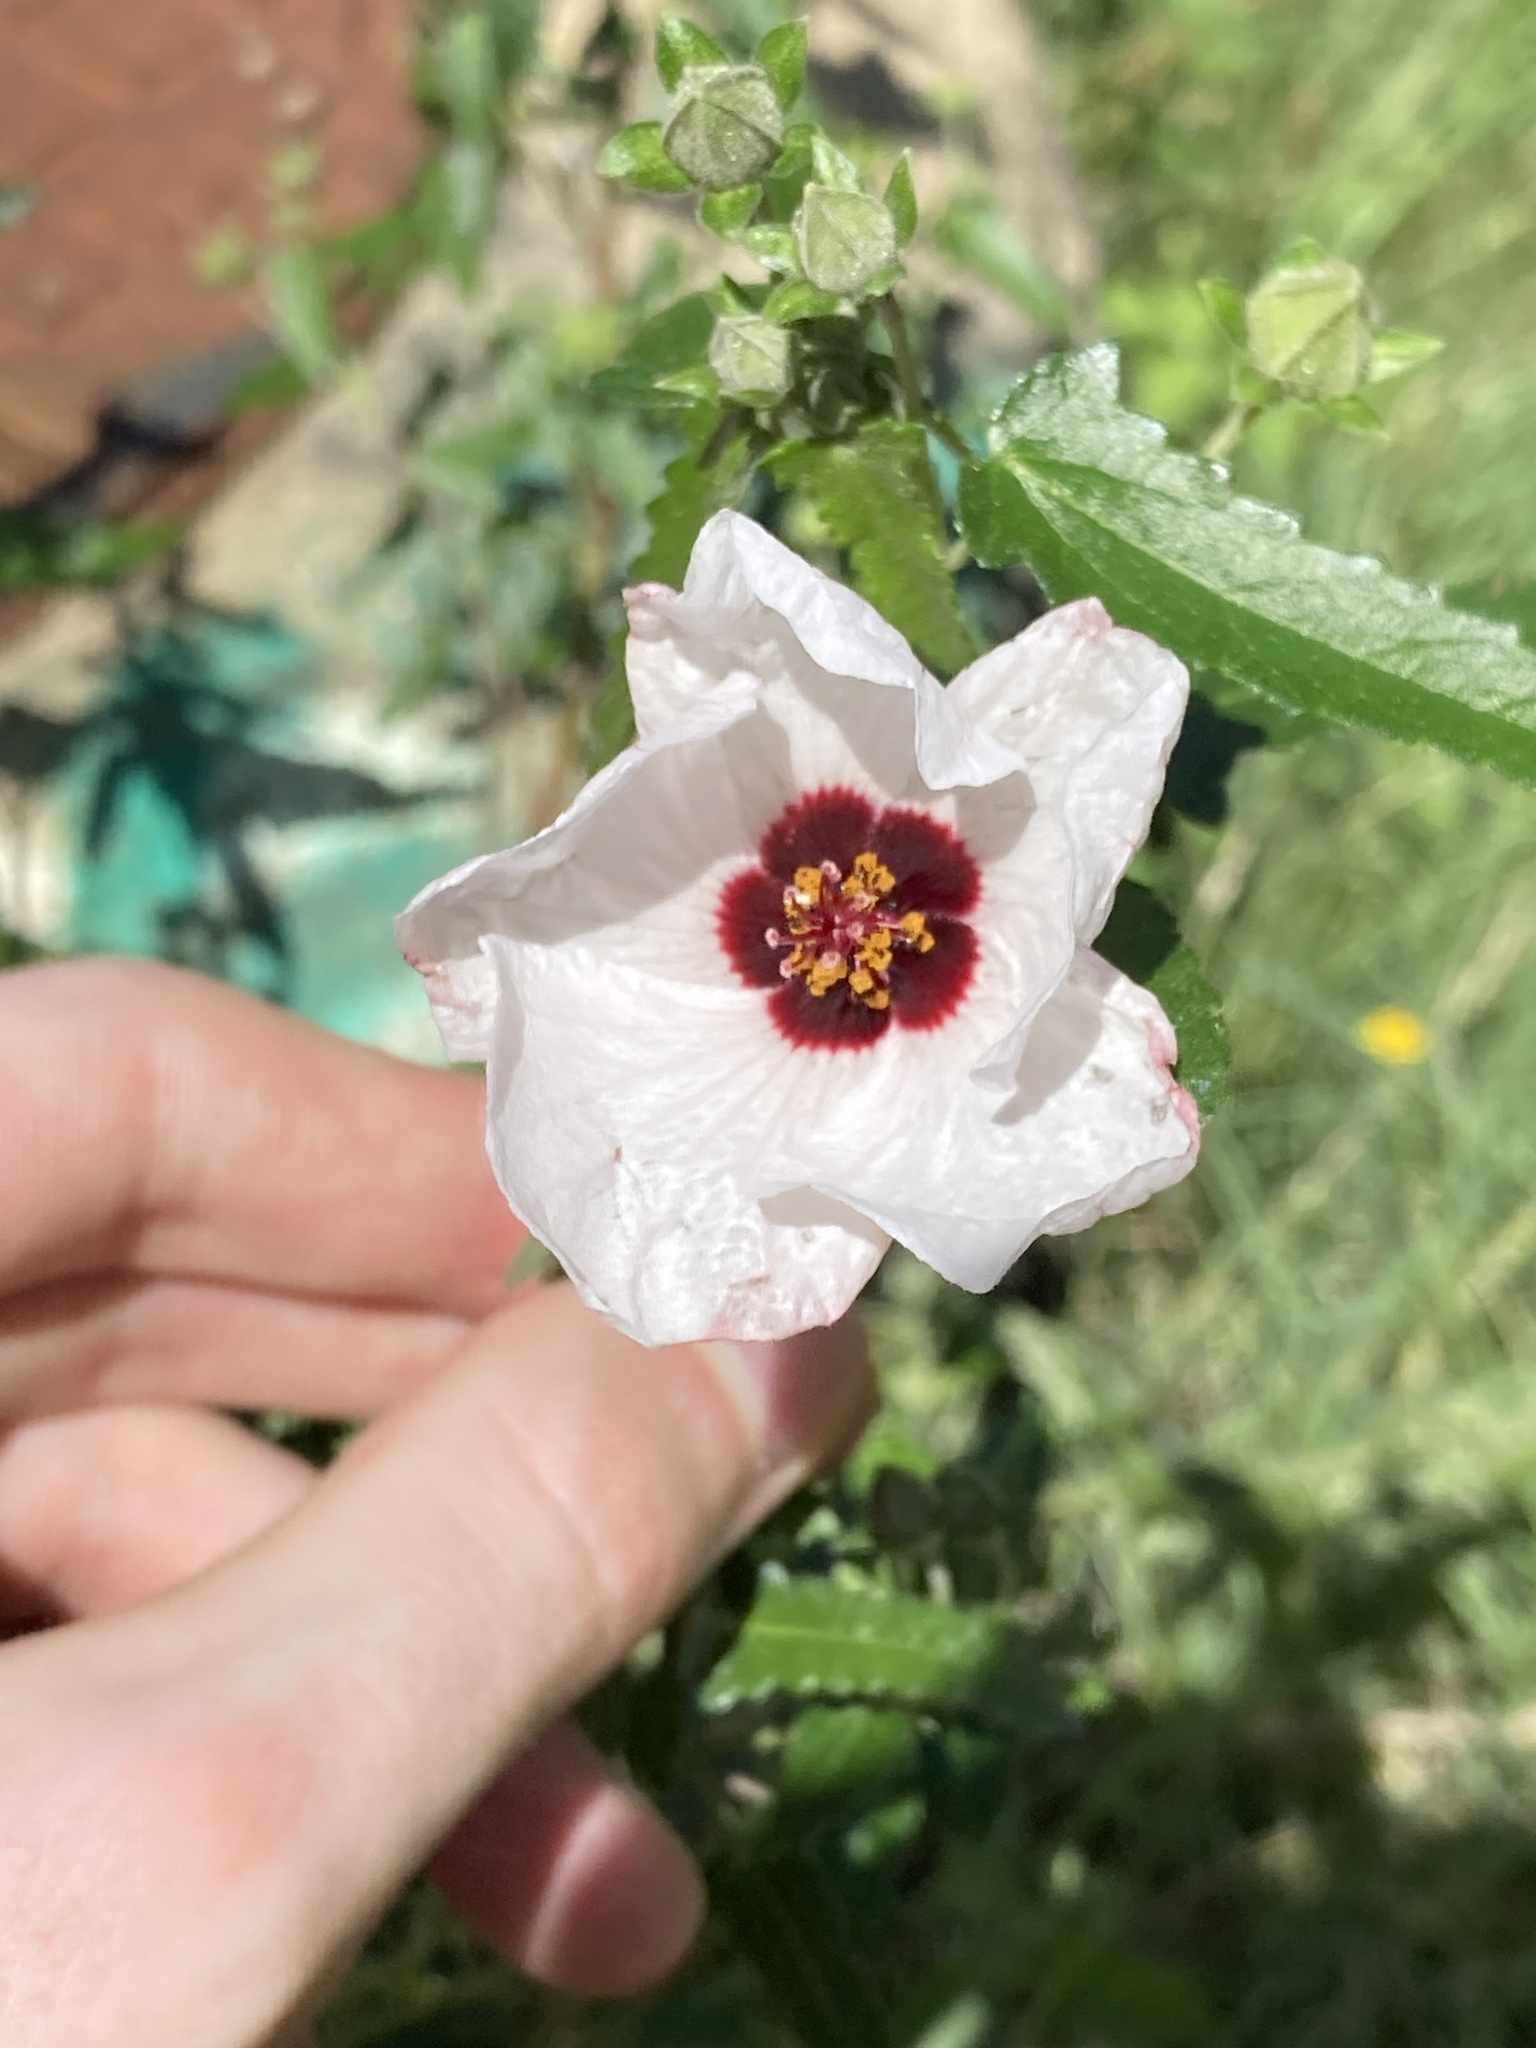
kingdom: Plantae
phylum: Tracheophyta
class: Magnoliopsida
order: Malvales
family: Malvaceae
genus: Pavonia
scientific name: Pavonia hastata
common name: Spearleaf swampmallow
